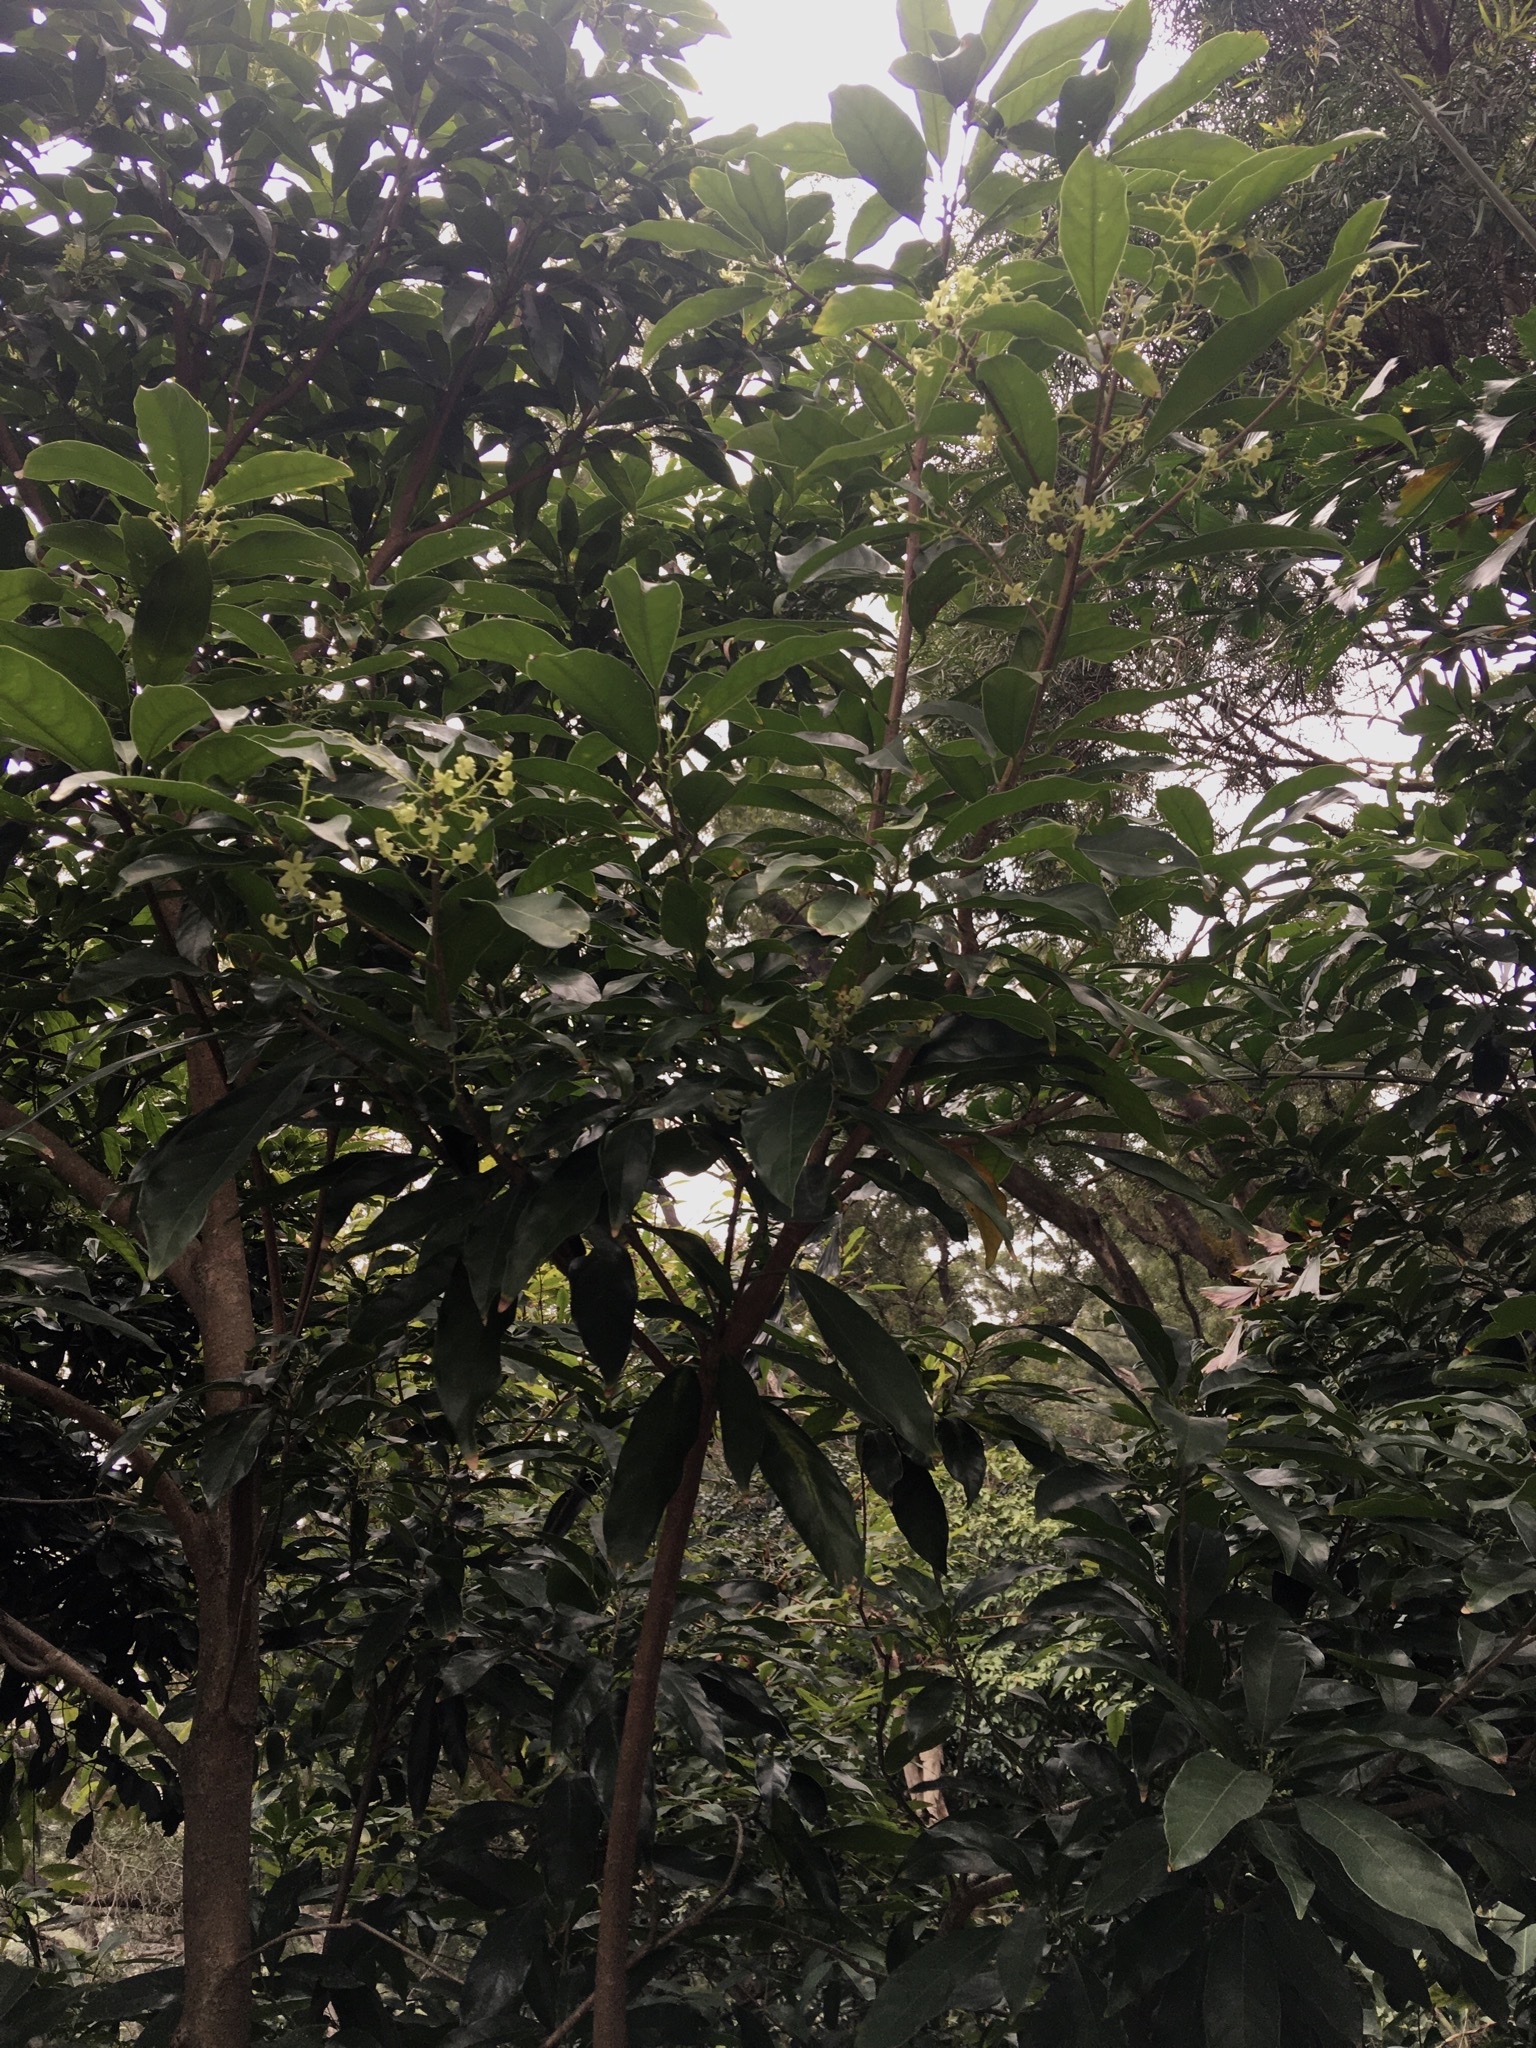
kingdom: Plantae
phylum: Tracheophyta
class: Magnoliopsida
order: Malvales
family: Malvaceae
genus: Sterculia
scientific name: Sterculia lanceolata
